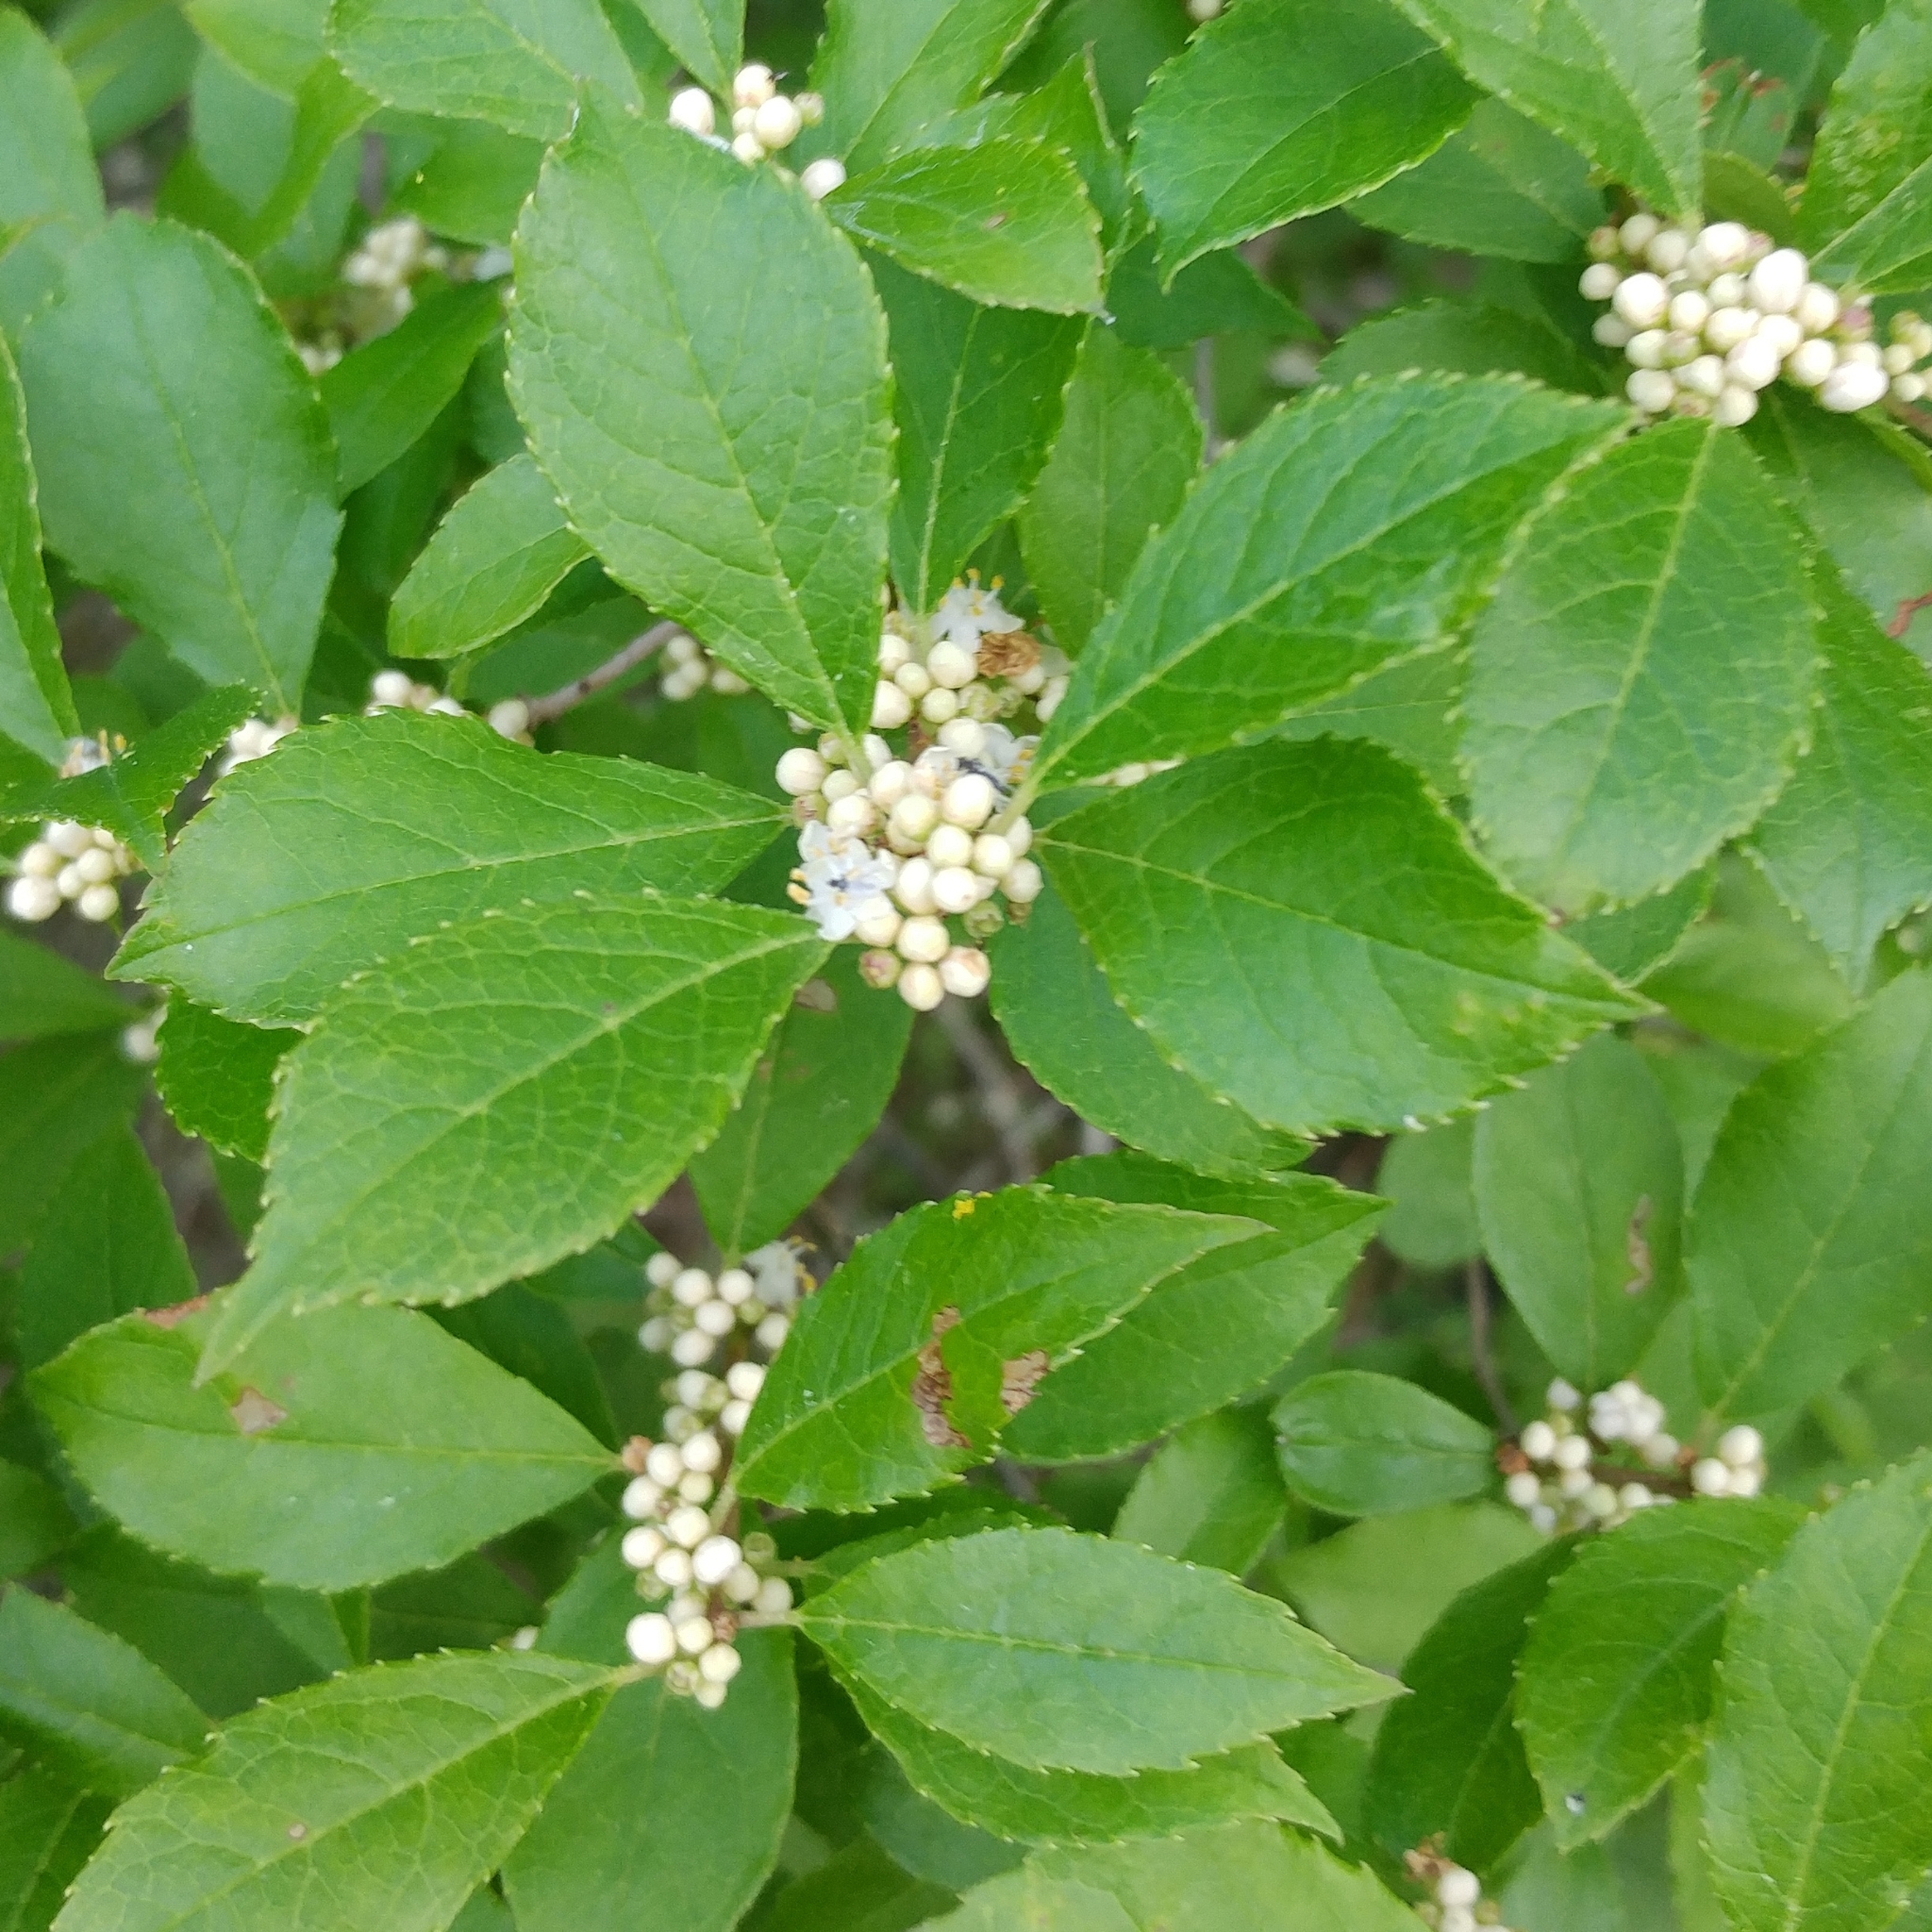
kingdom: Plantae
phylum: Tracheophyta
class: Magnoliopsida
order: Aquifoliales
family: Aquifoliaceae
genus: Ilex
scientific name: Ilex verticillata
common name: Virginia winterberry
